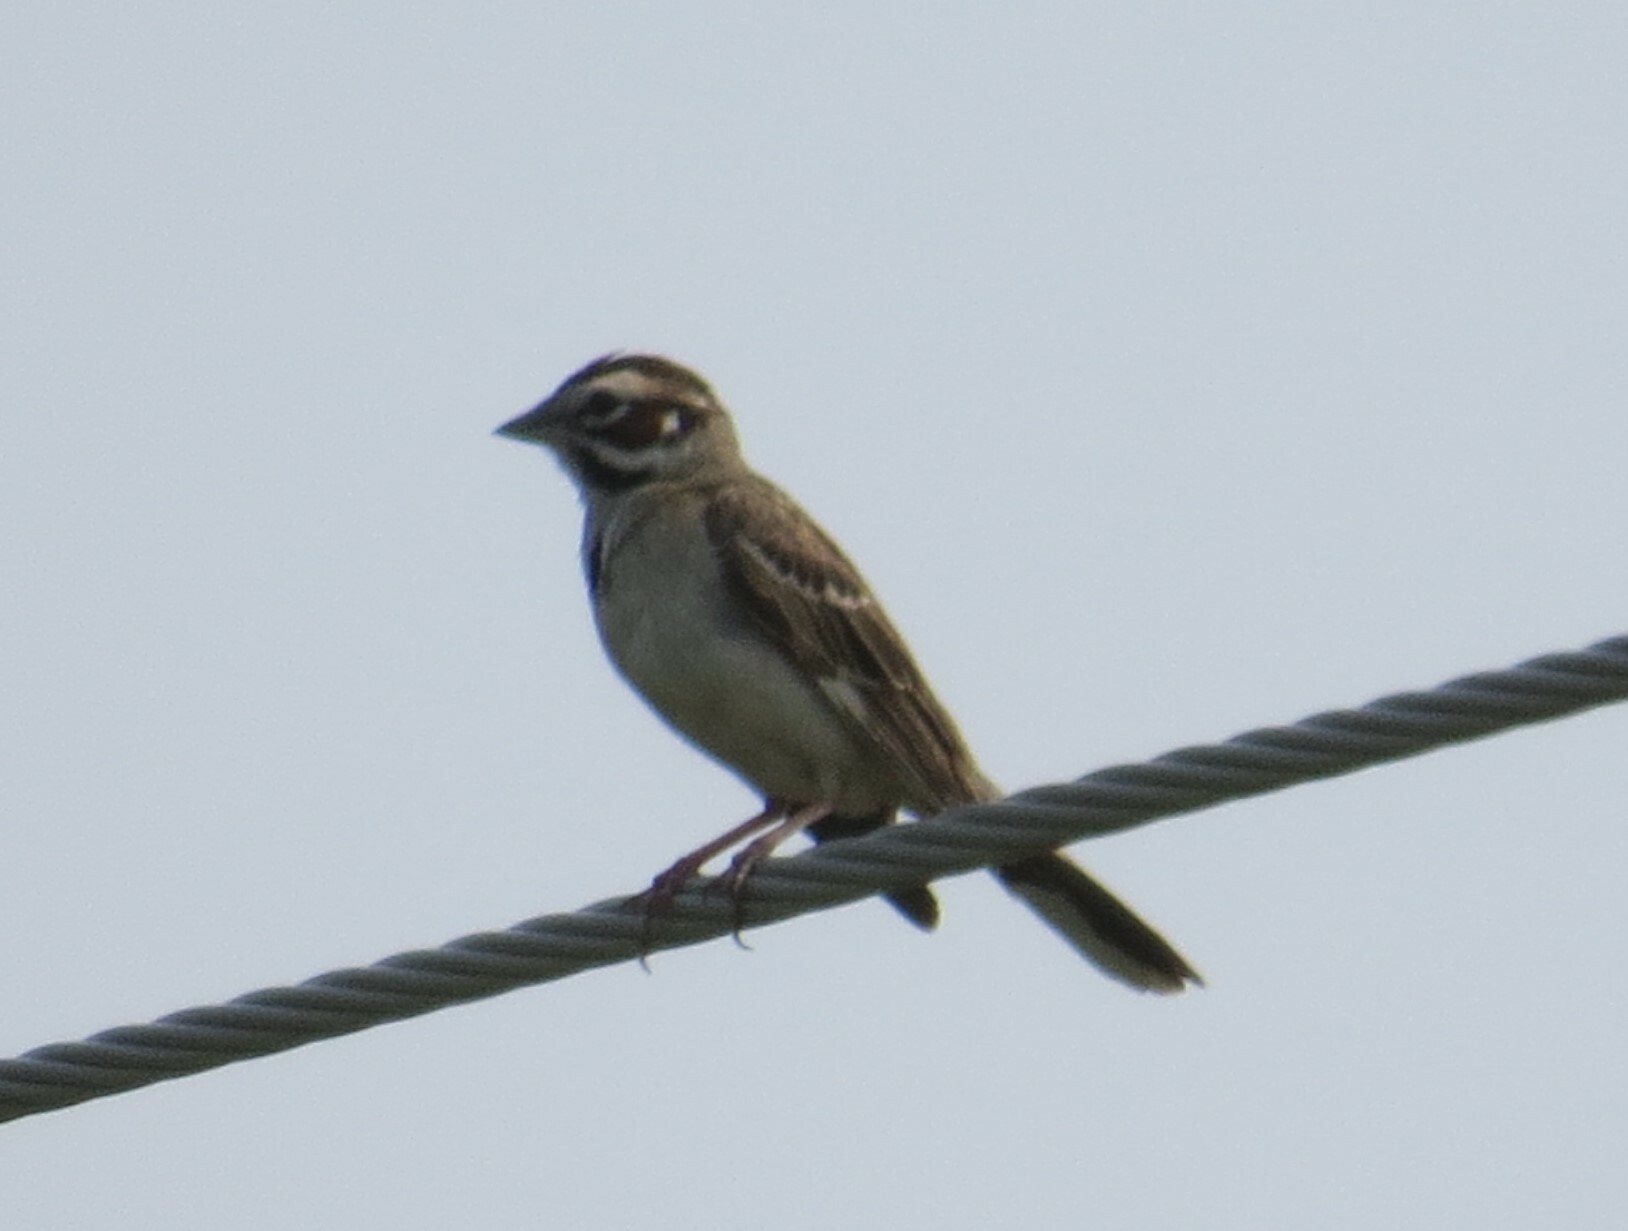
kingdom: Animalia
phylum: Chordata
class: Aves
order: Passeriformes
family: Passerellidae
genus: Chondestes
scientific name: Chondestes grammacus
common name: Lark sparrow
